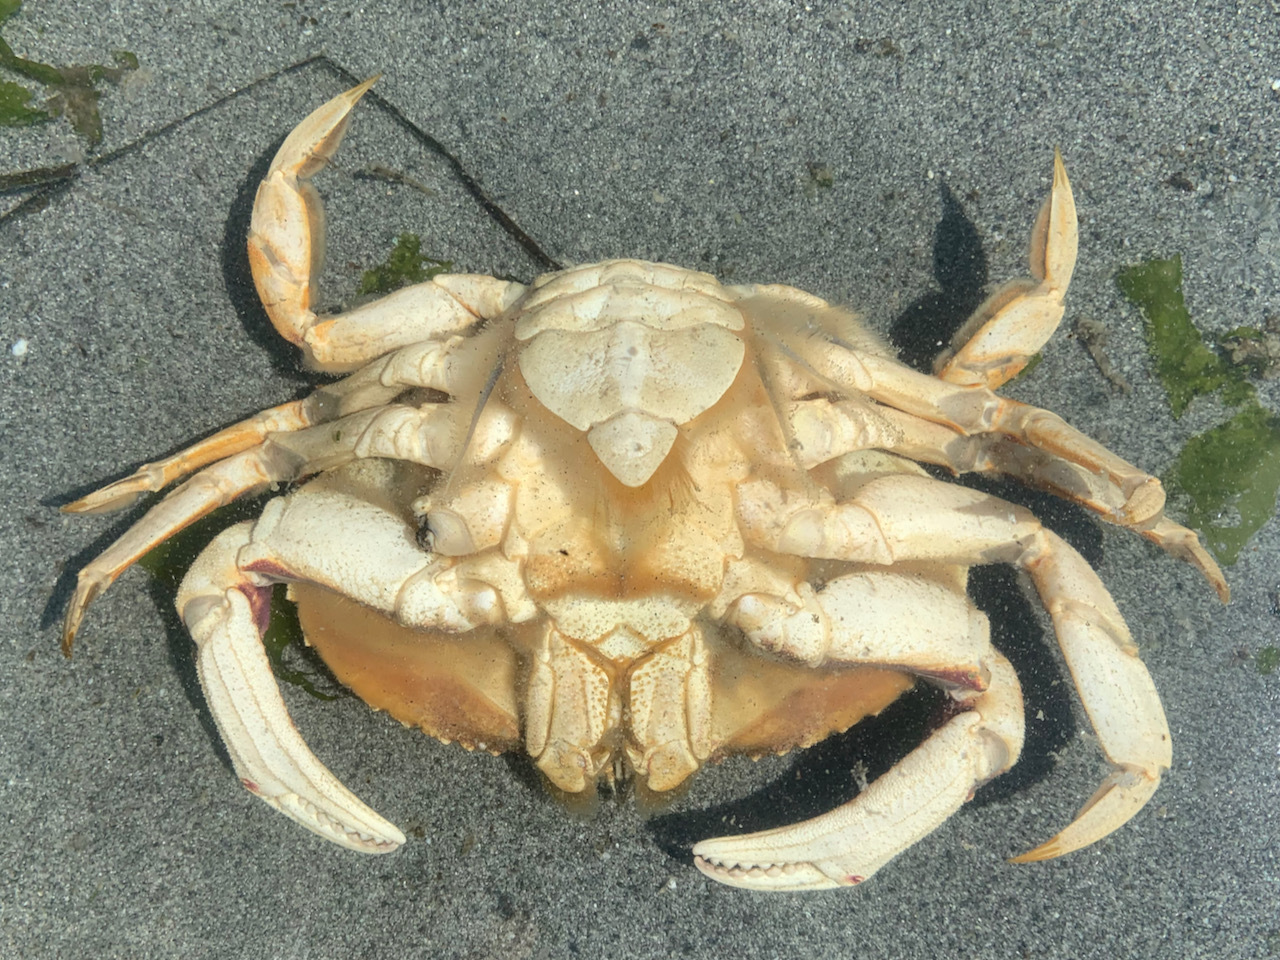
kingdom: Animalia
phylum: Arthropoda
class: Malacostraca
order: Decapoda
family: Cancridae
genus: Metacarcinus
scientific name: Metacarcinus magister
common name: Californian crab
